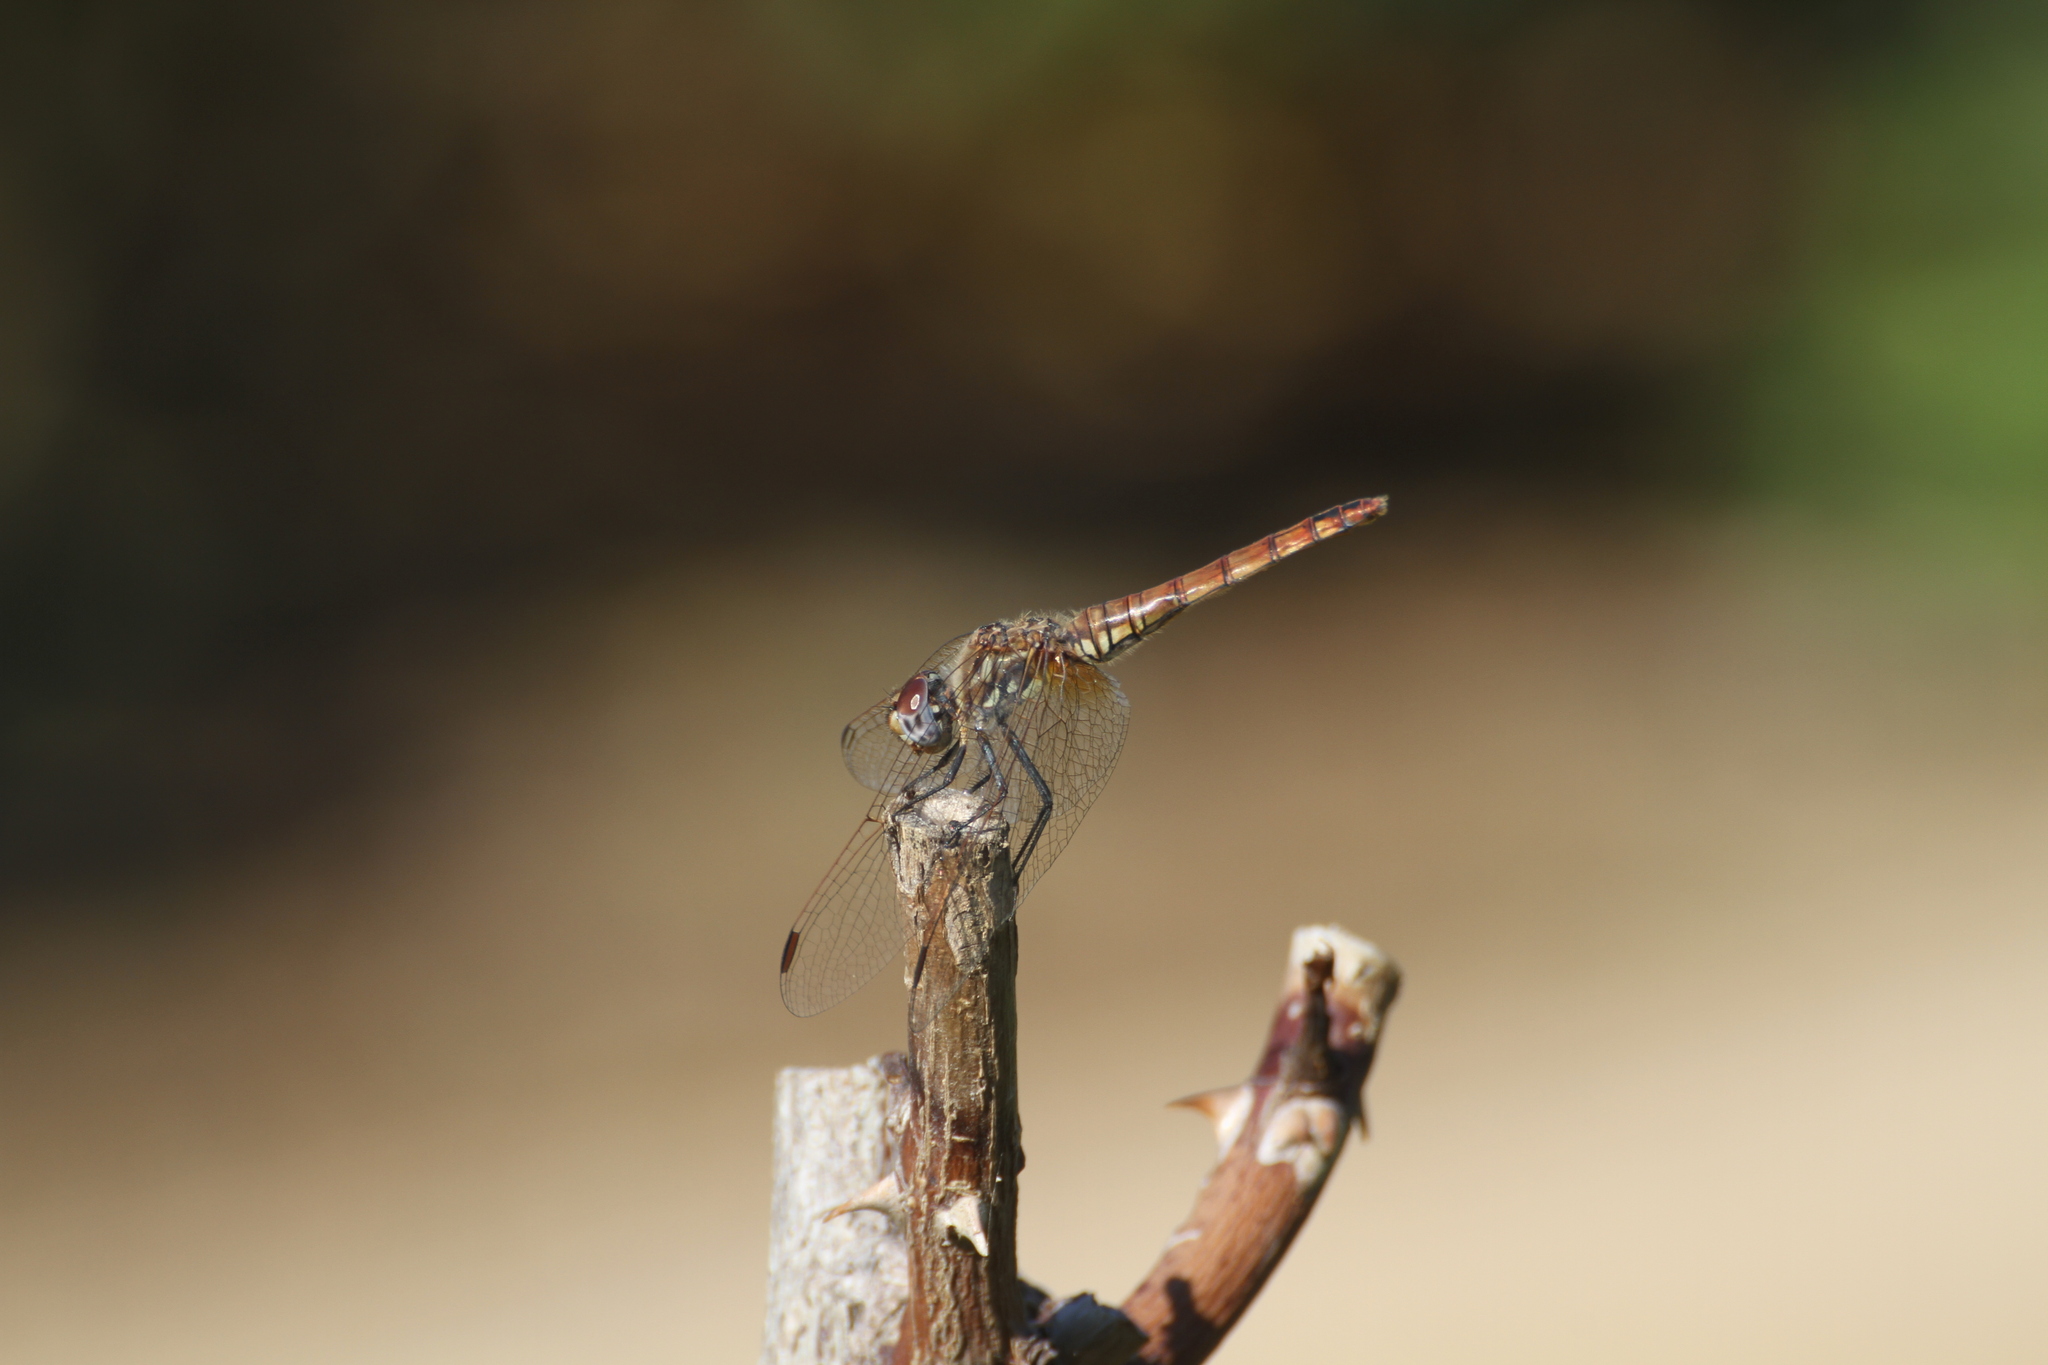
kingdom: Animalia
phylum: Arthropoda
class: Insecta
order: Odonata
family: Libellulidae
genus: Trithemis
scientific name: Trithemis annulata
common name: Violet dropwing
